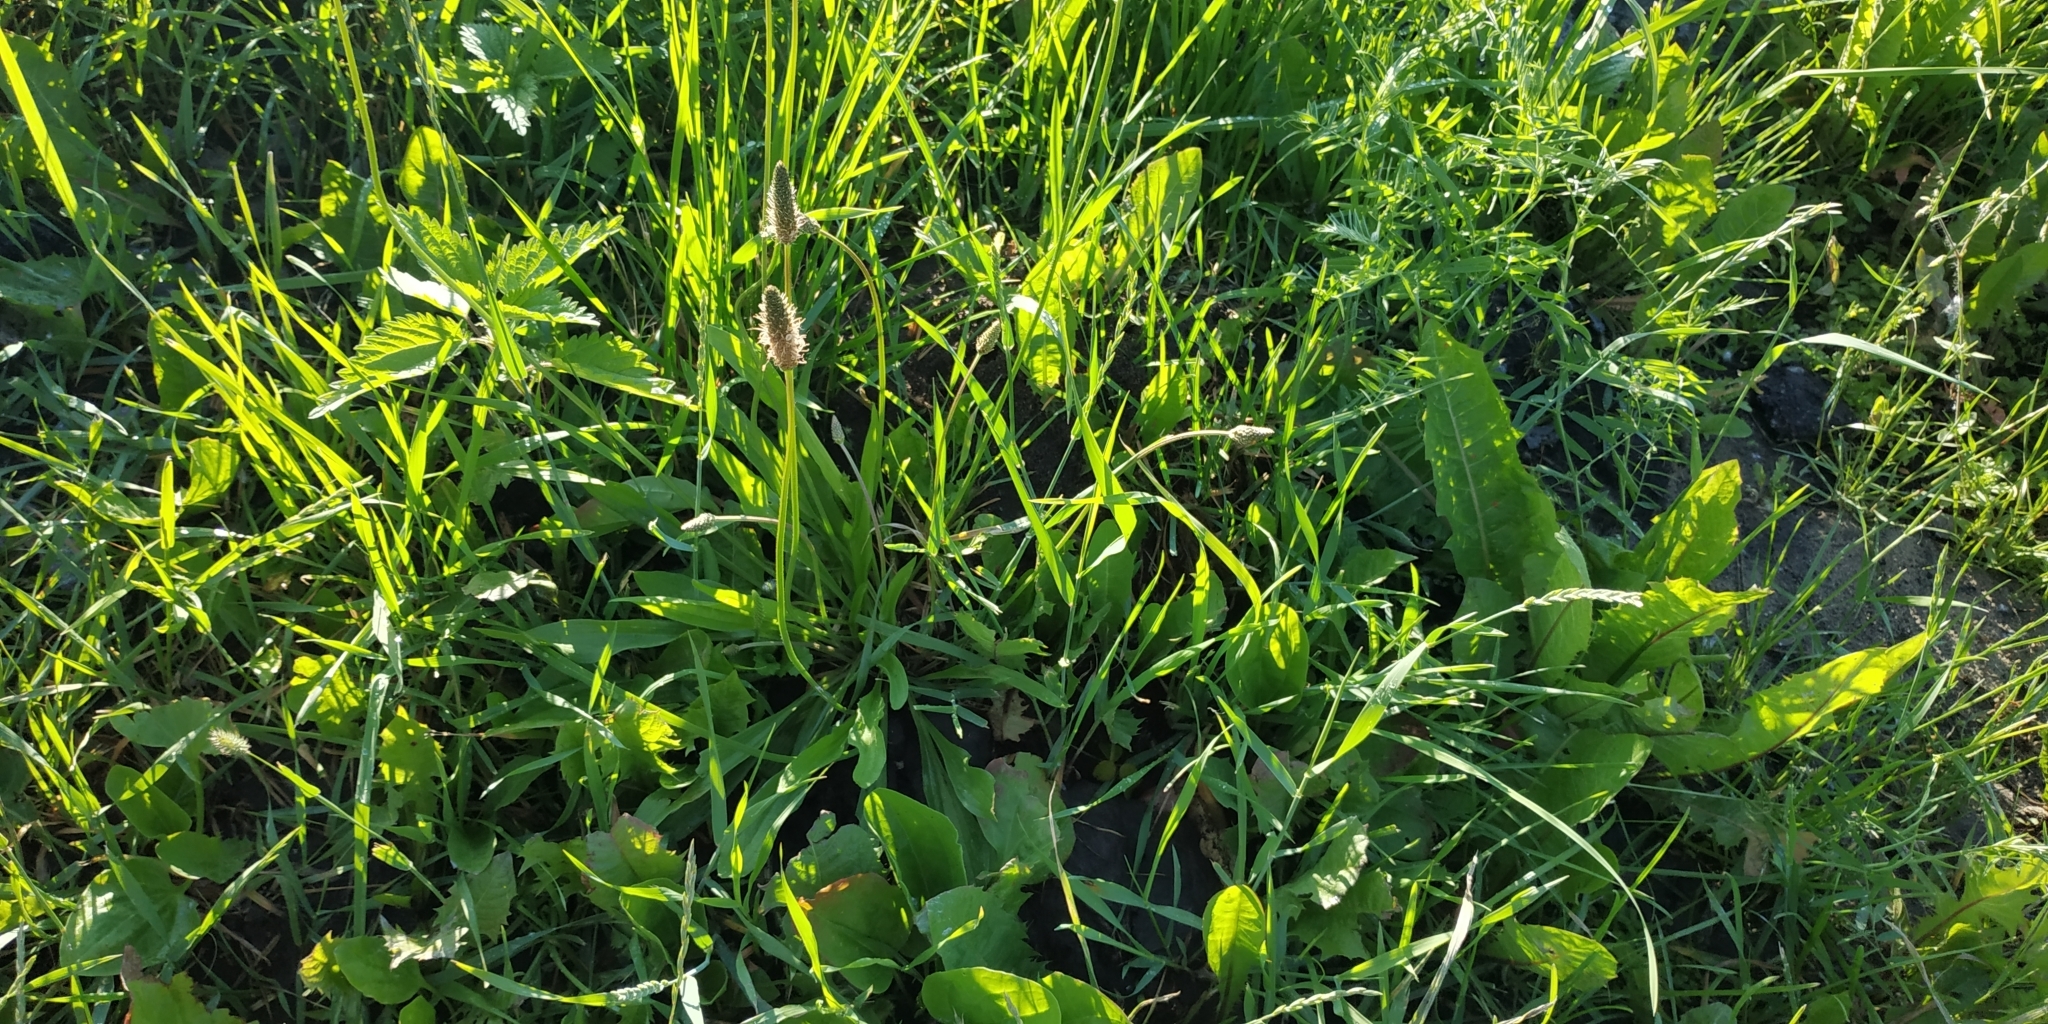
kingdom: Plantae
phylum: Tracheophyta
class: Magnoliopsida
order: Lamiales
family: Plantaginaceae
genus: Plantago
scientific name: Plantago lanceolata
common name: Ribwort plantain
